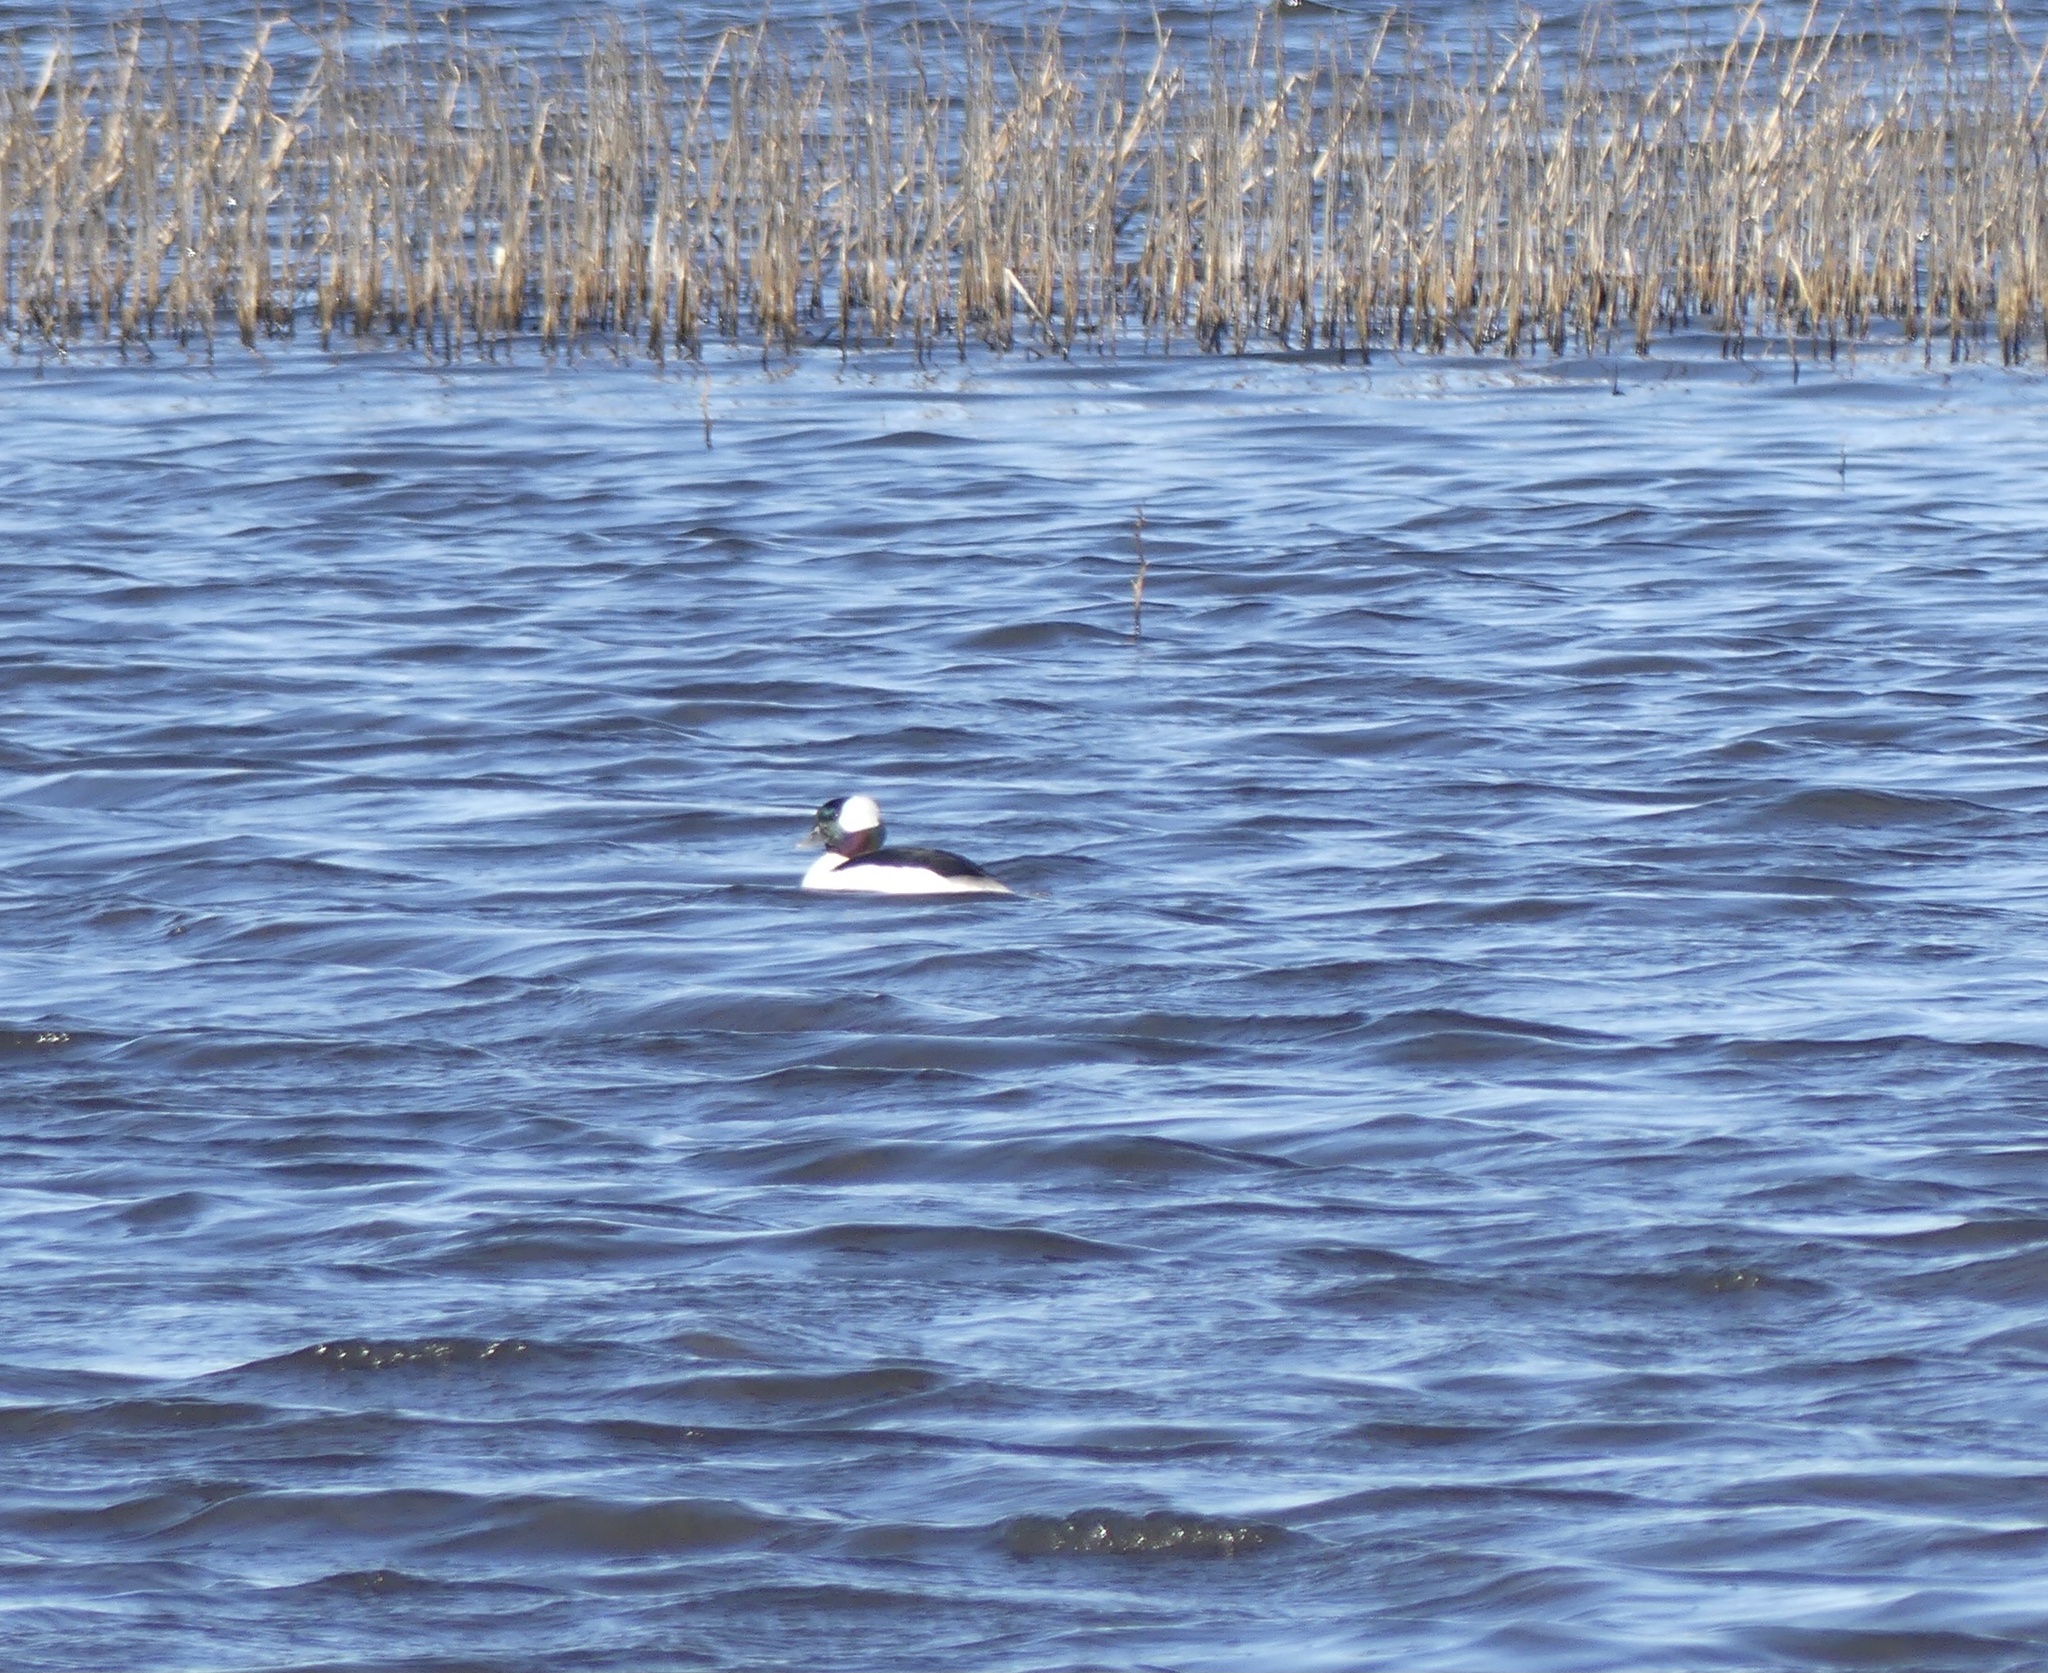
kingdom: Animalia
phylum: Chordata
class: Aves
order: Anseriformes
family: Anatidae
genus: Bucephala
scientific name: Bucephala albeola
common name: Bufflehead
